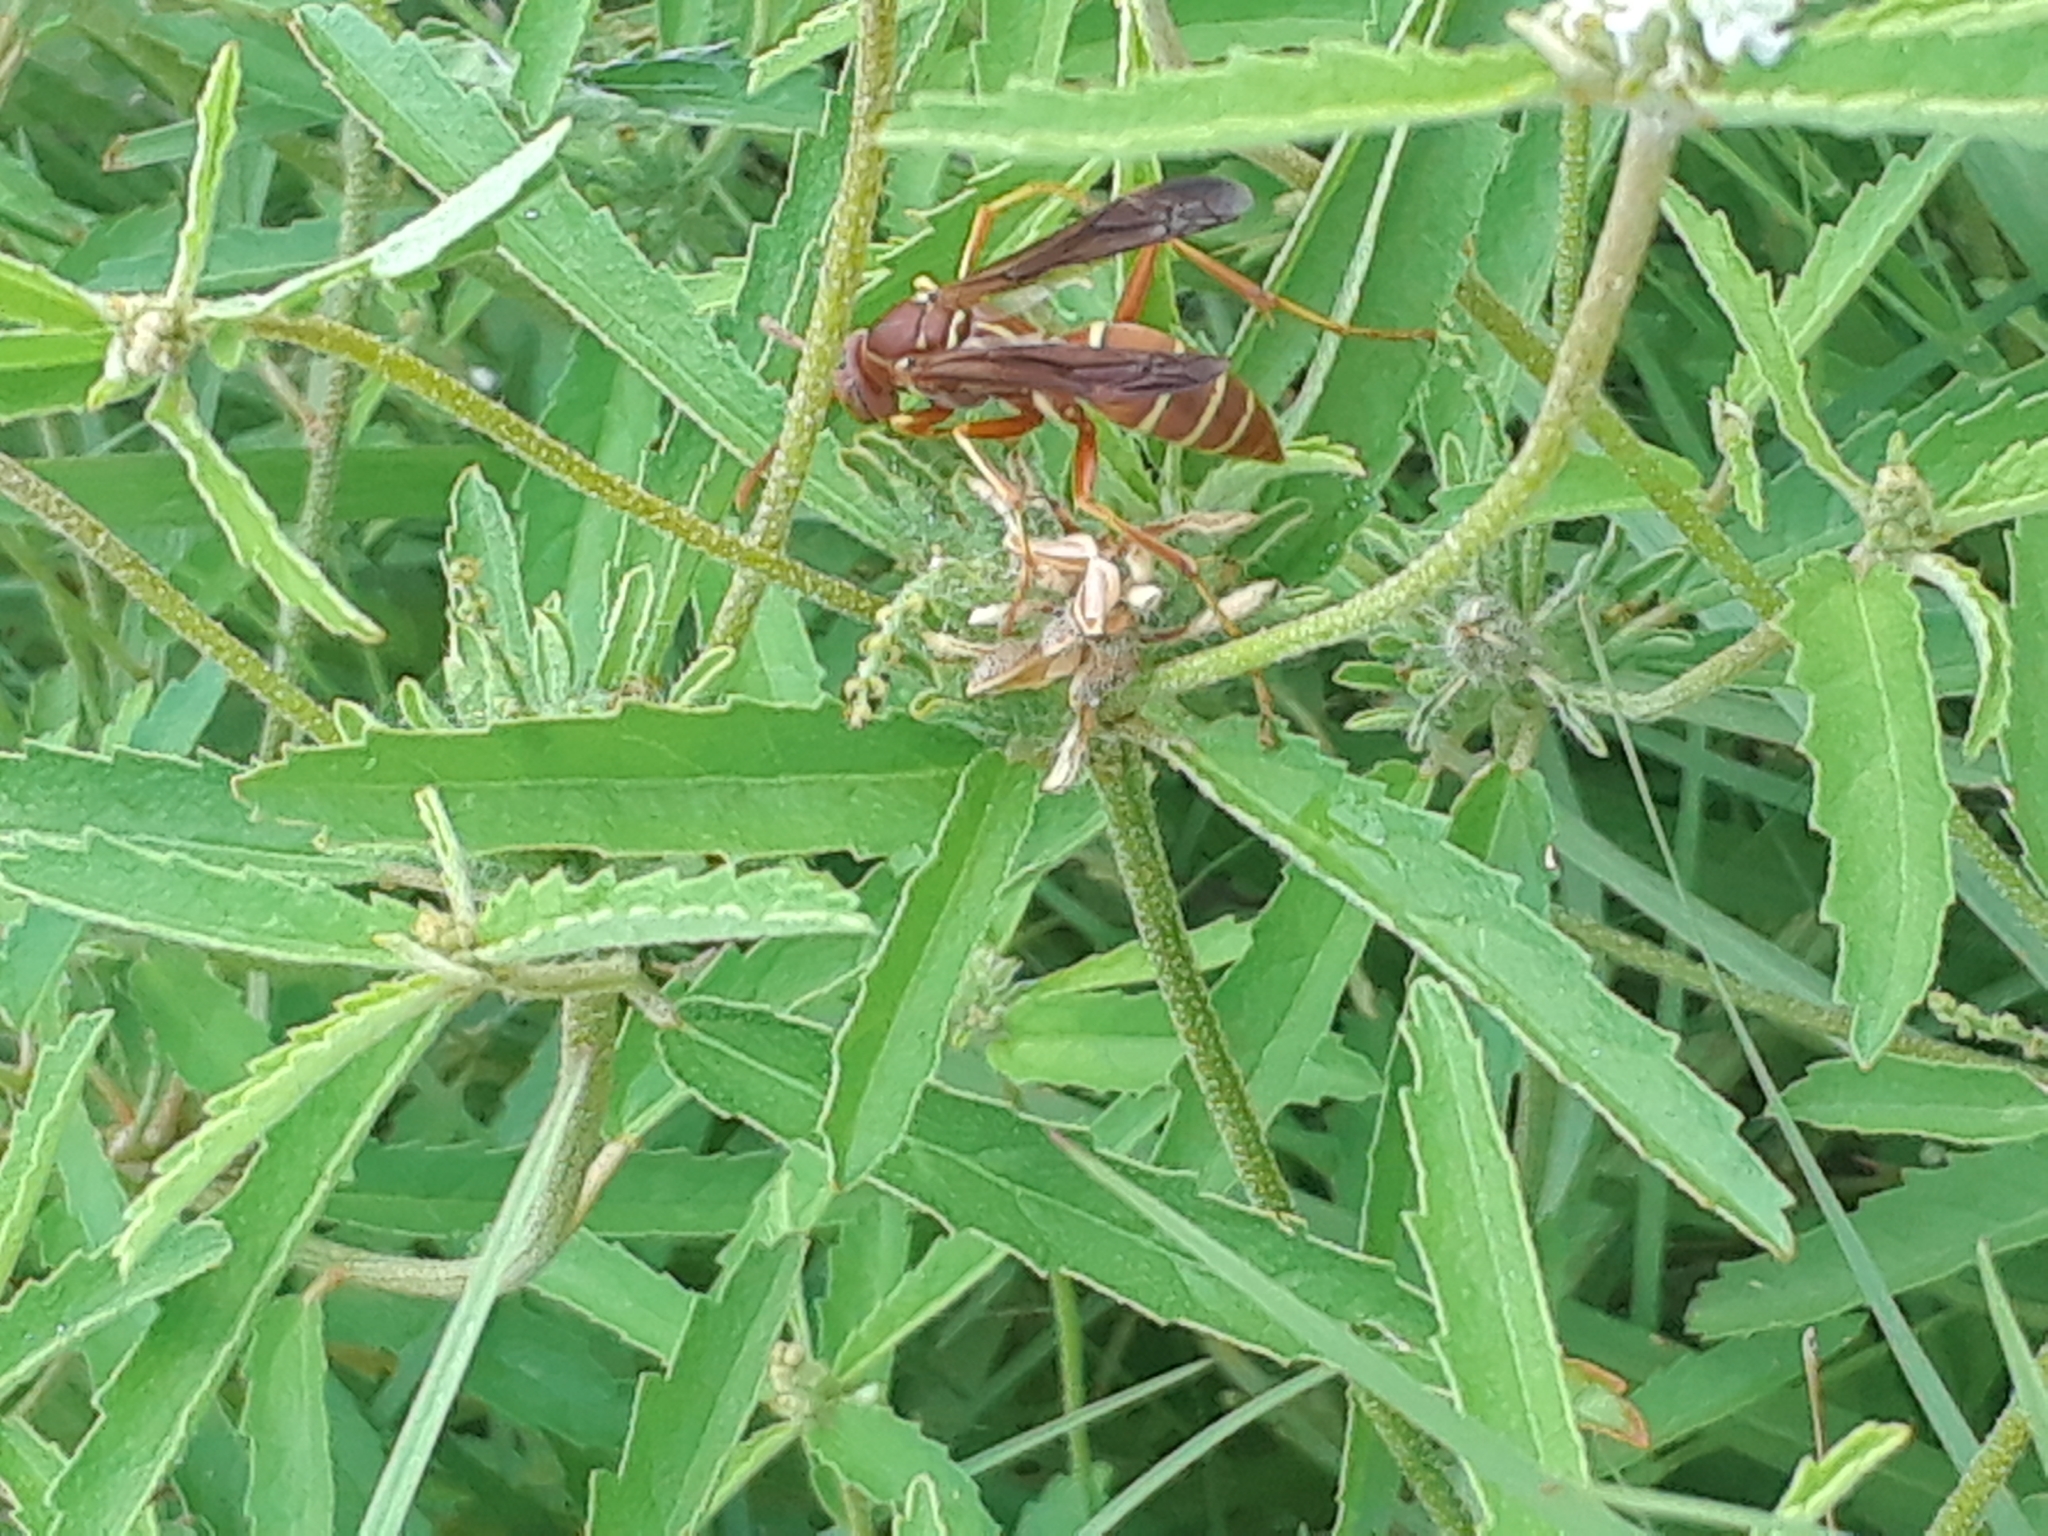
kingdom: Animalia
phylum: Arthropoda
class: Insecta
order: Hymenoptera
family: Eumenidae
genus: Polistes
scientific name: Polistes bellicosus
